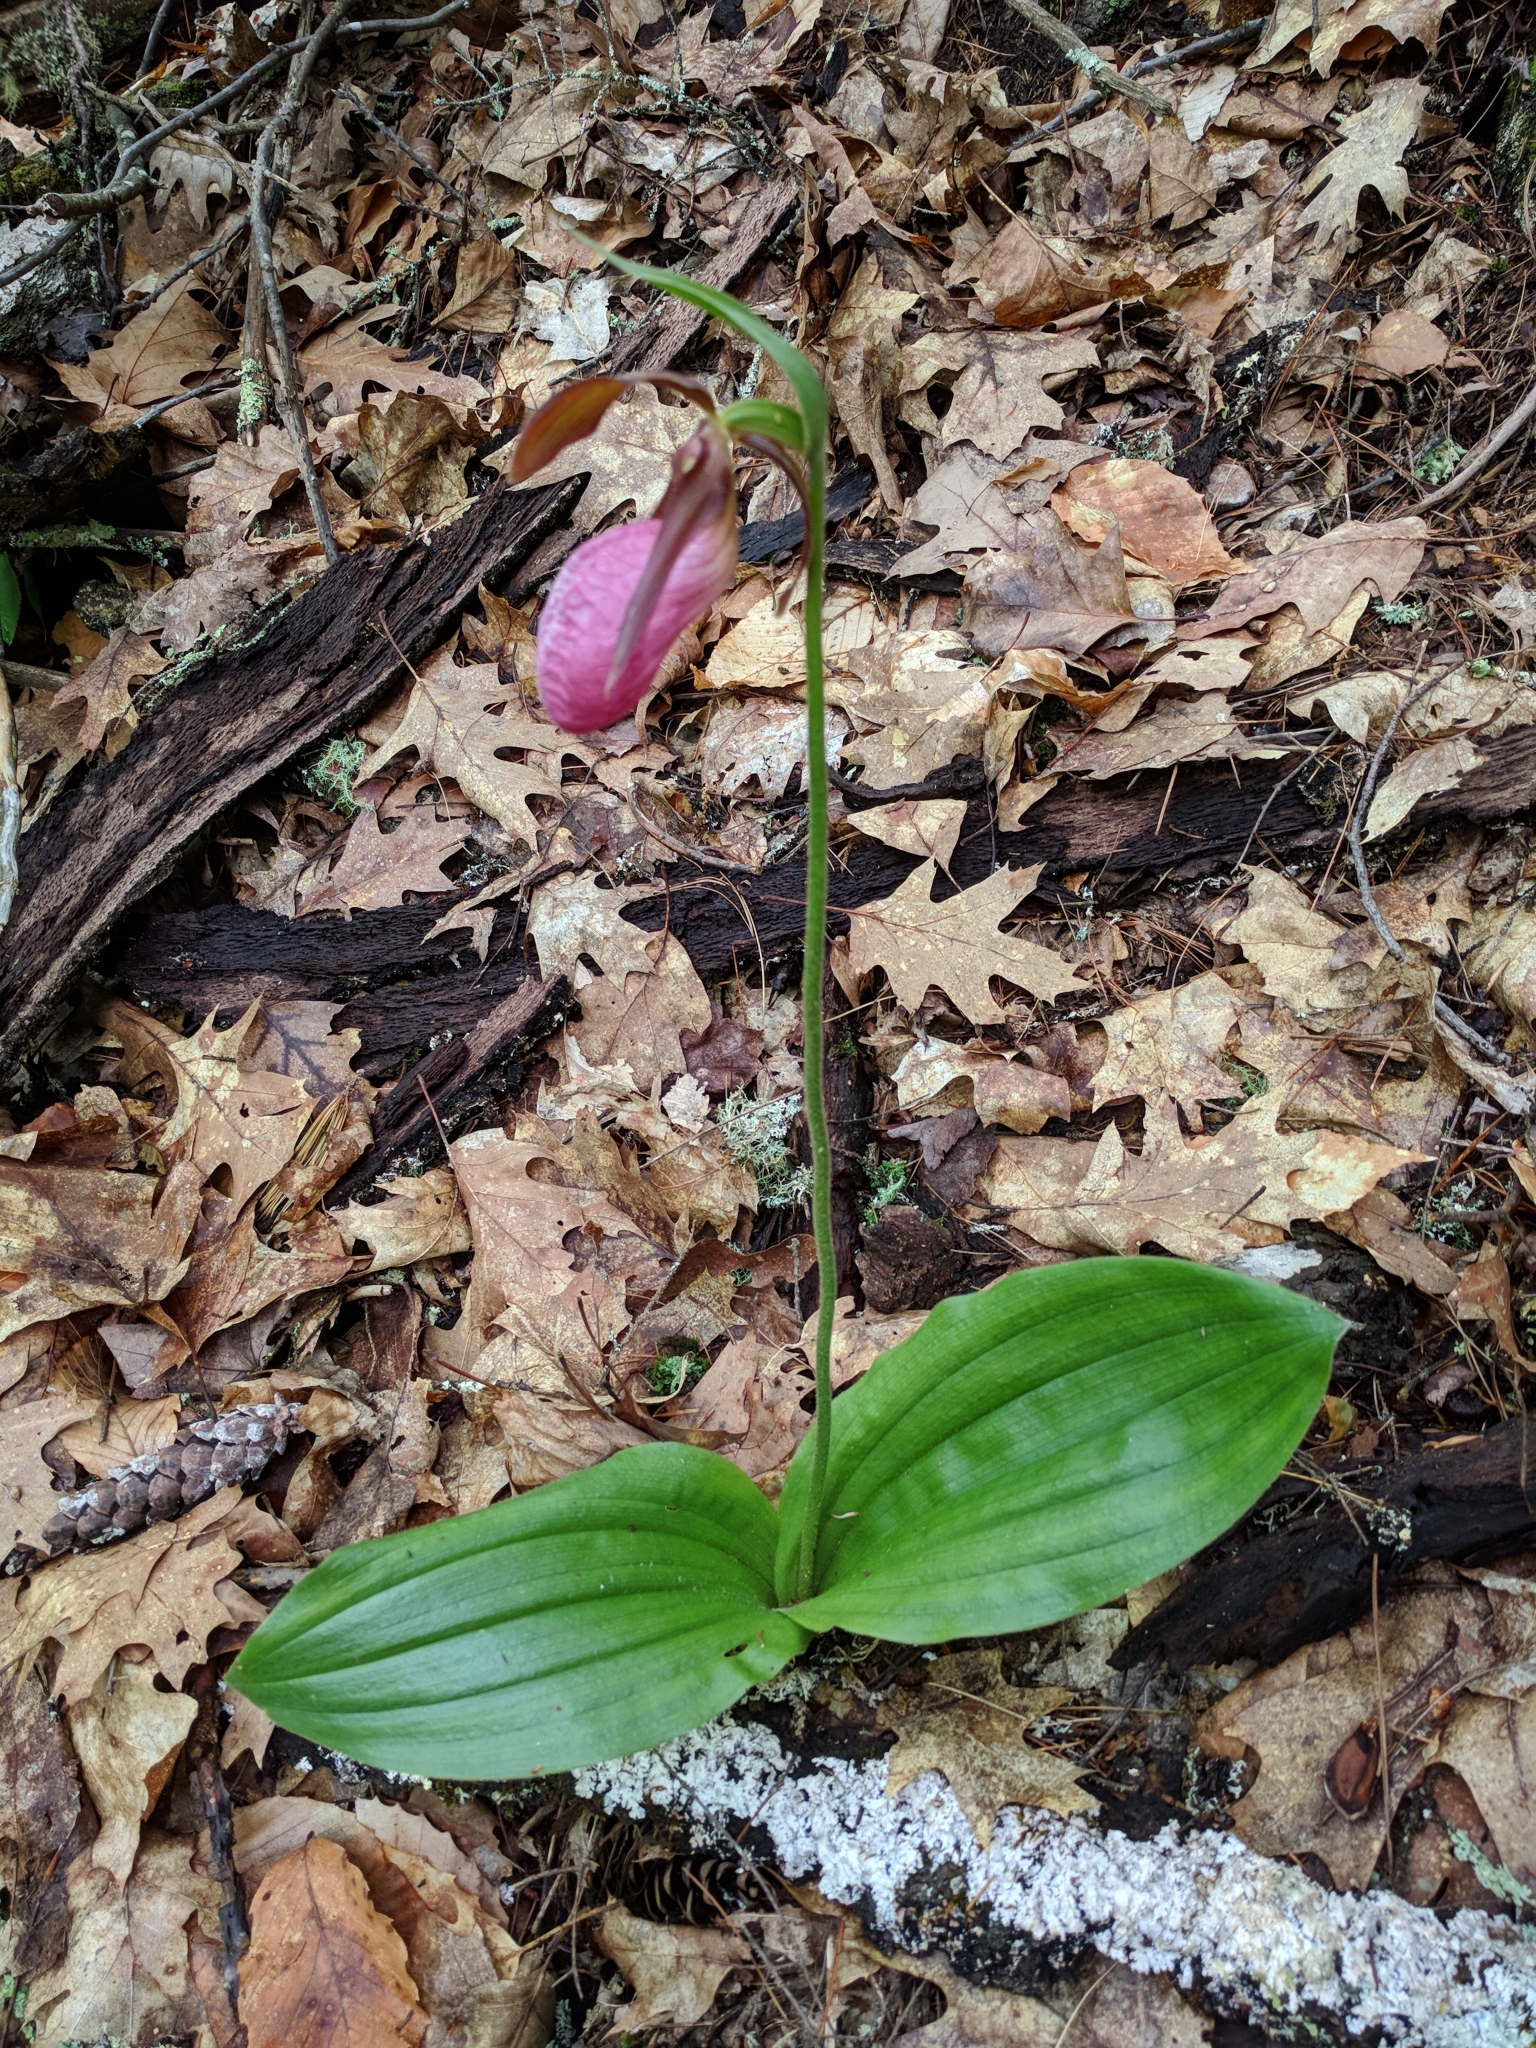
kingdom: Plantae
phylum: Tracheophyta
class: Liliopsida
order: Asparagales
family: Orchidaceae
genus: Cypripedium
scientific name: Cypripedium acaule
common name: Pink lady's-slipper
